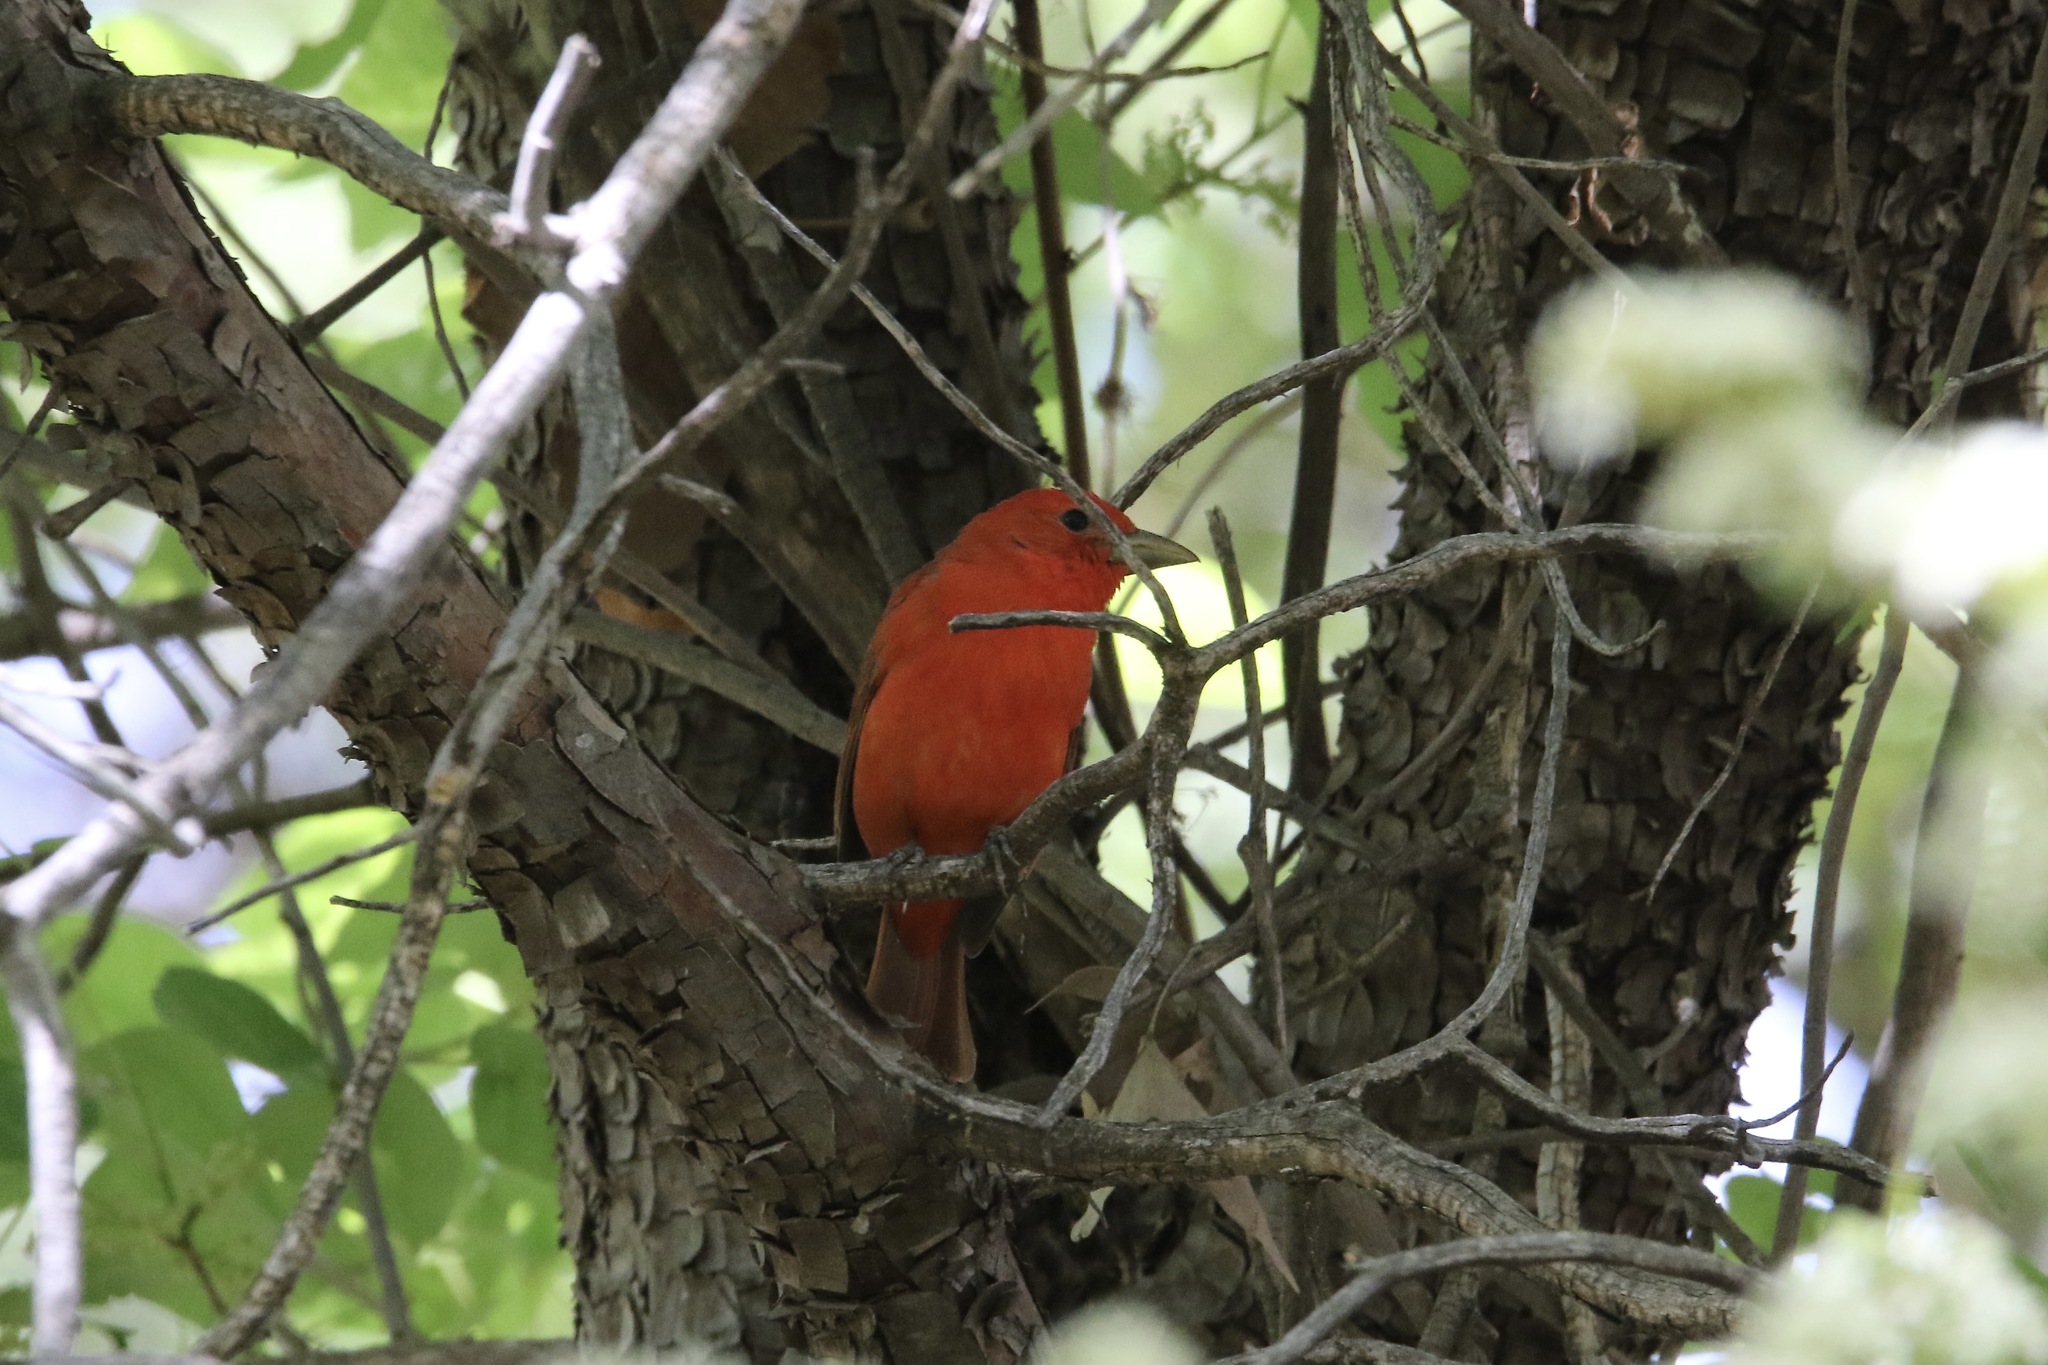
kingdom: Animalia
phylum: Chordata
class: Aves
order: Passeriformes
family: Cardinalidae
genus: Piranga
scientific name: Piranga rubra
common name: Summer tanager
